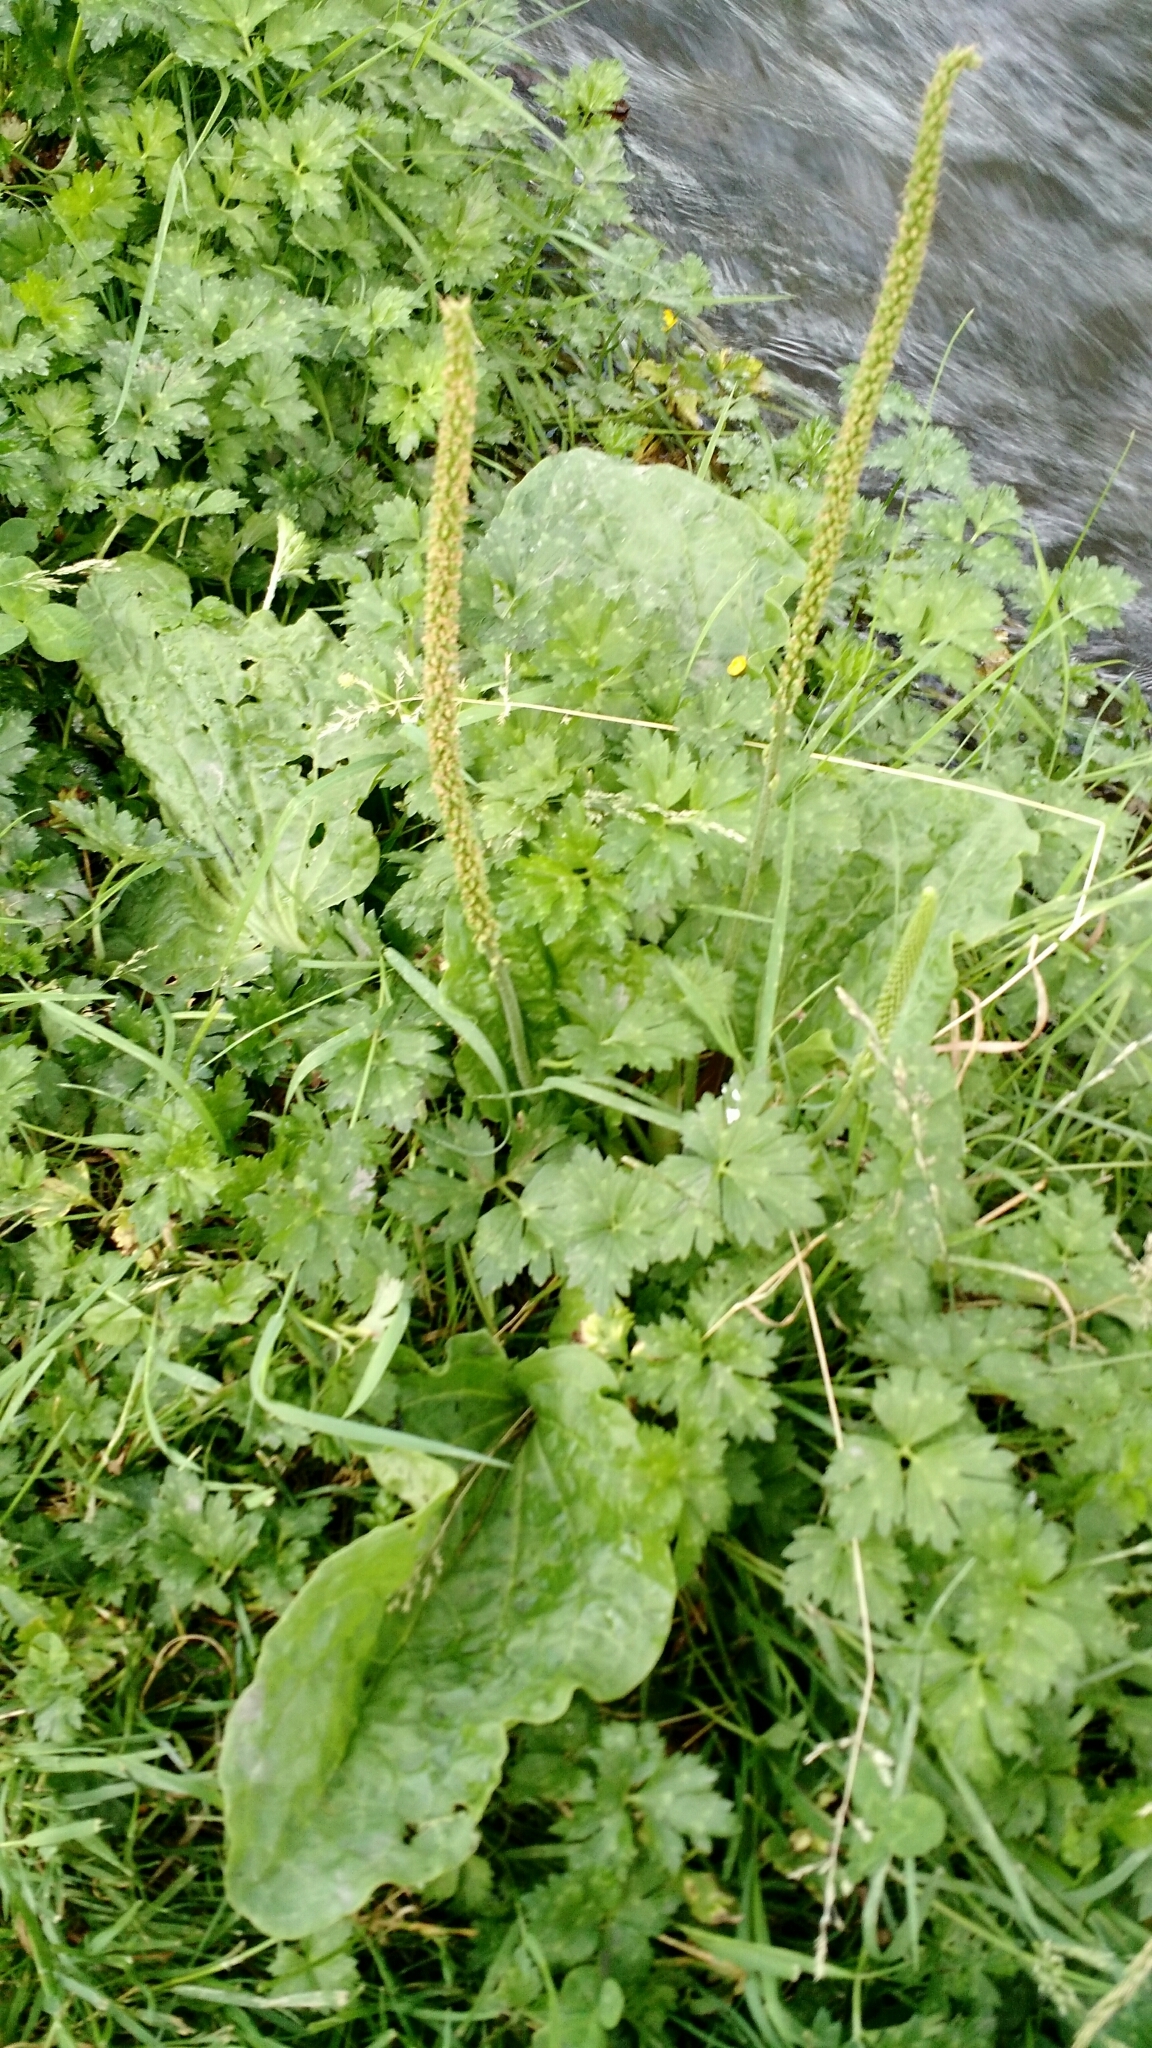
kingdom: Plantae
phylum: Tracheophyta
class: Magnoliopsida
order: Lamiales
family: Plantaginaceae
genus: Plantago
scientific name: Plantago major
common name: Common plantain
